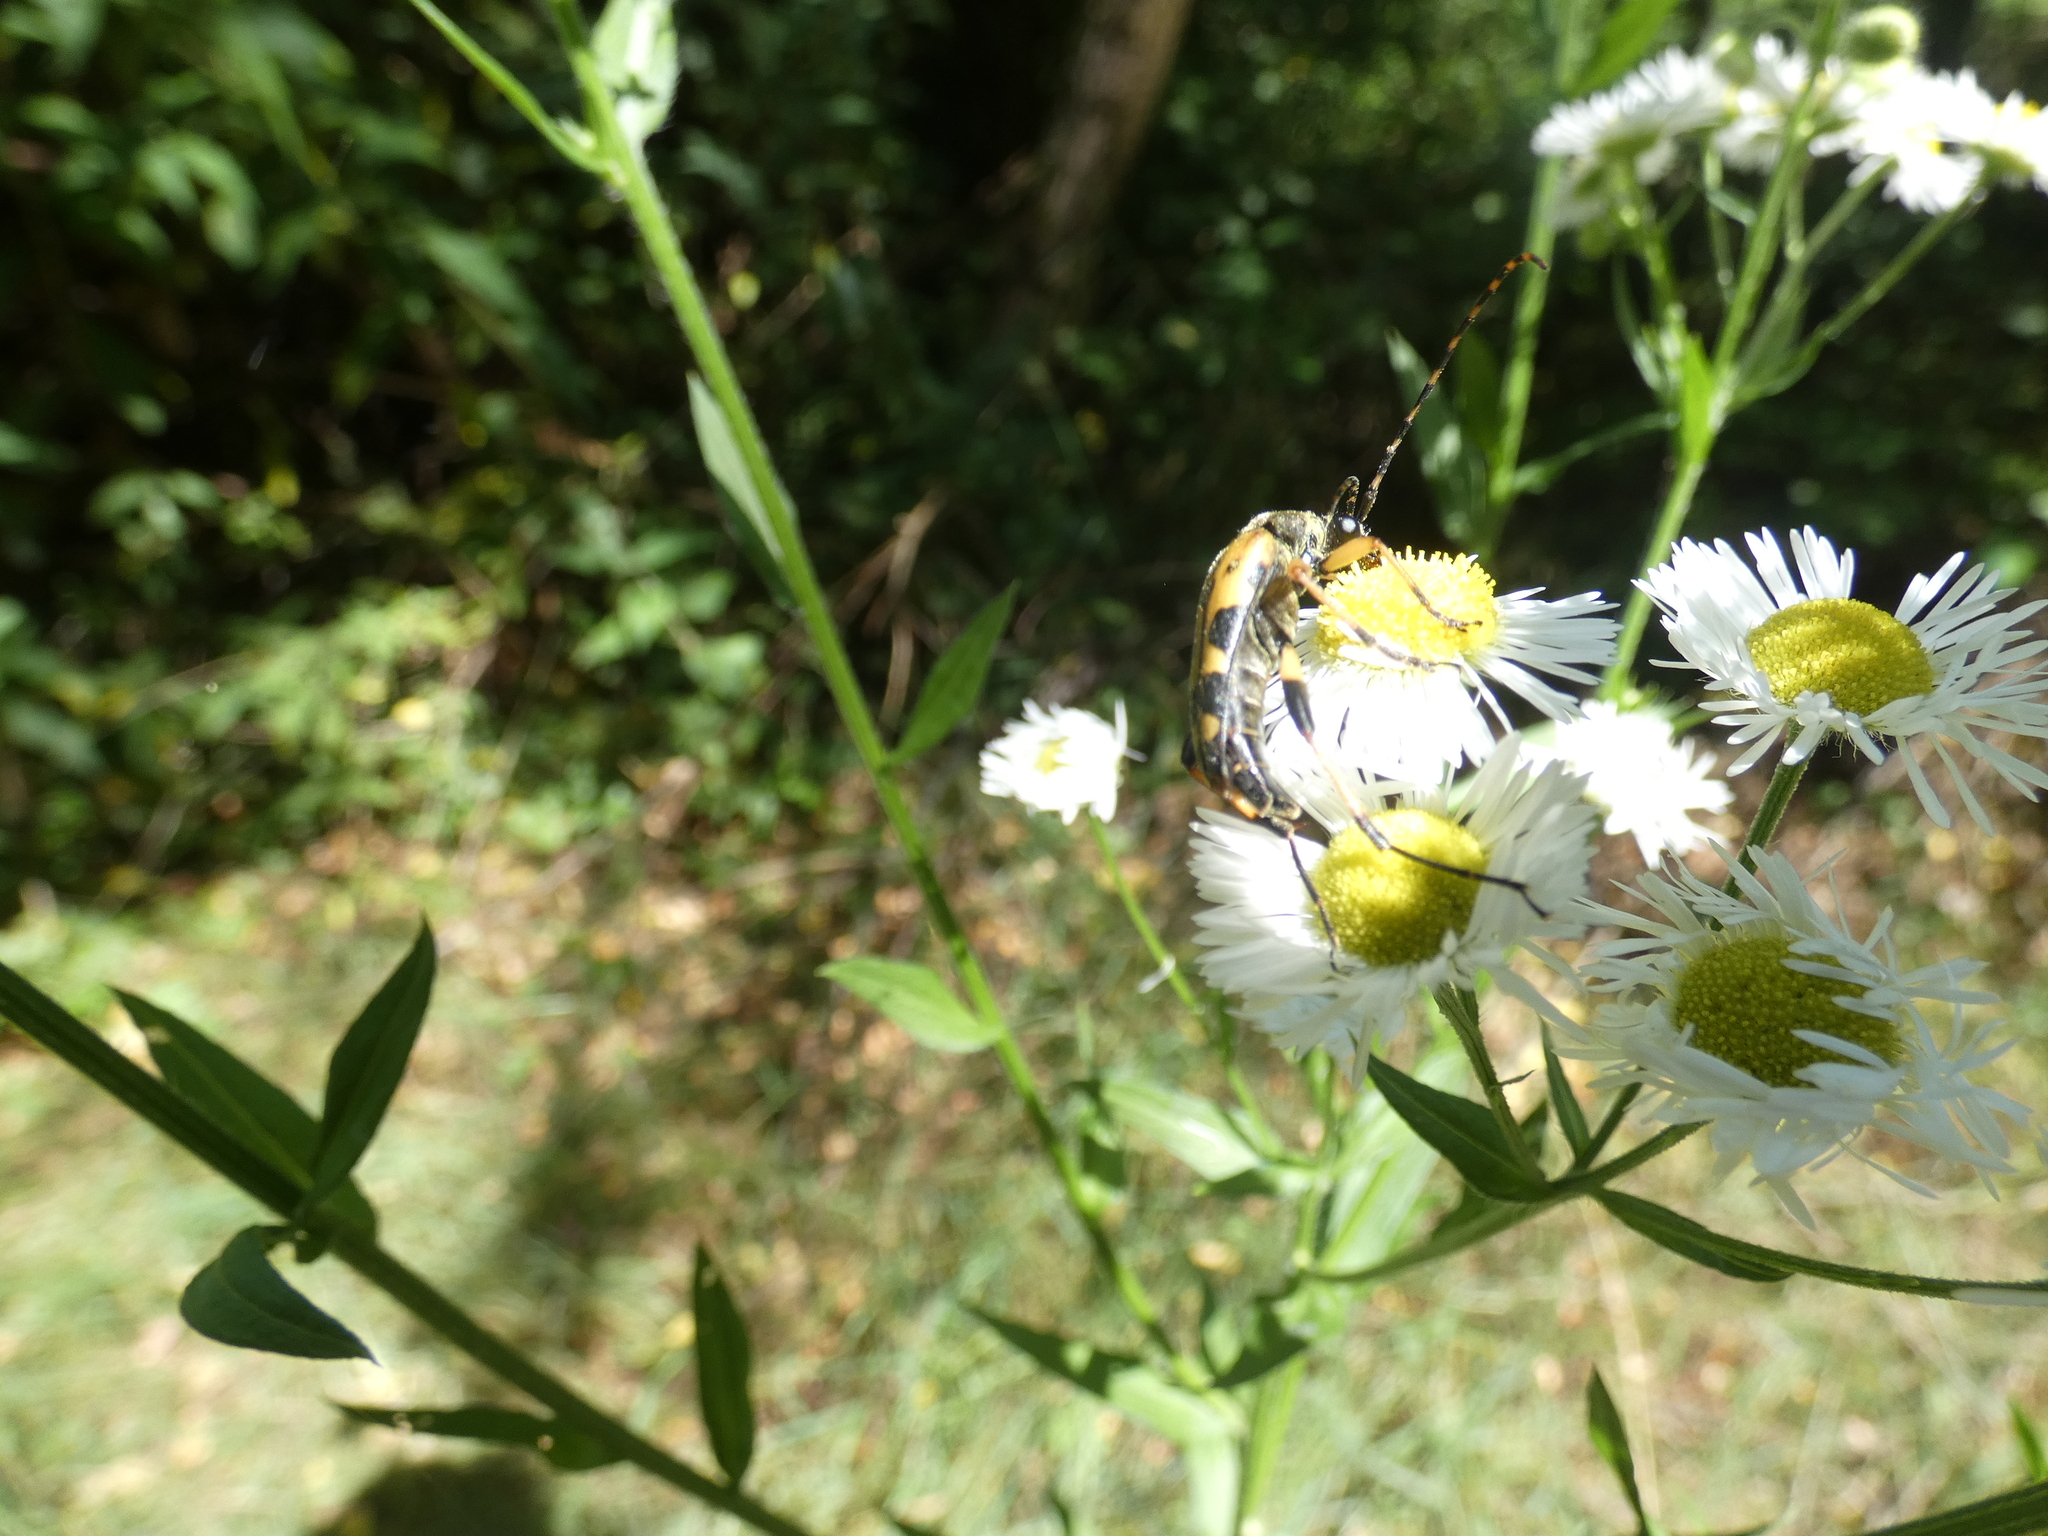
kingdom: Animalia
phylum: Arthropoda
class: Insecta
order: Coleoptera
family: Cerambycidae
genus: Rutpela
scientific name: Rutpela maculata
